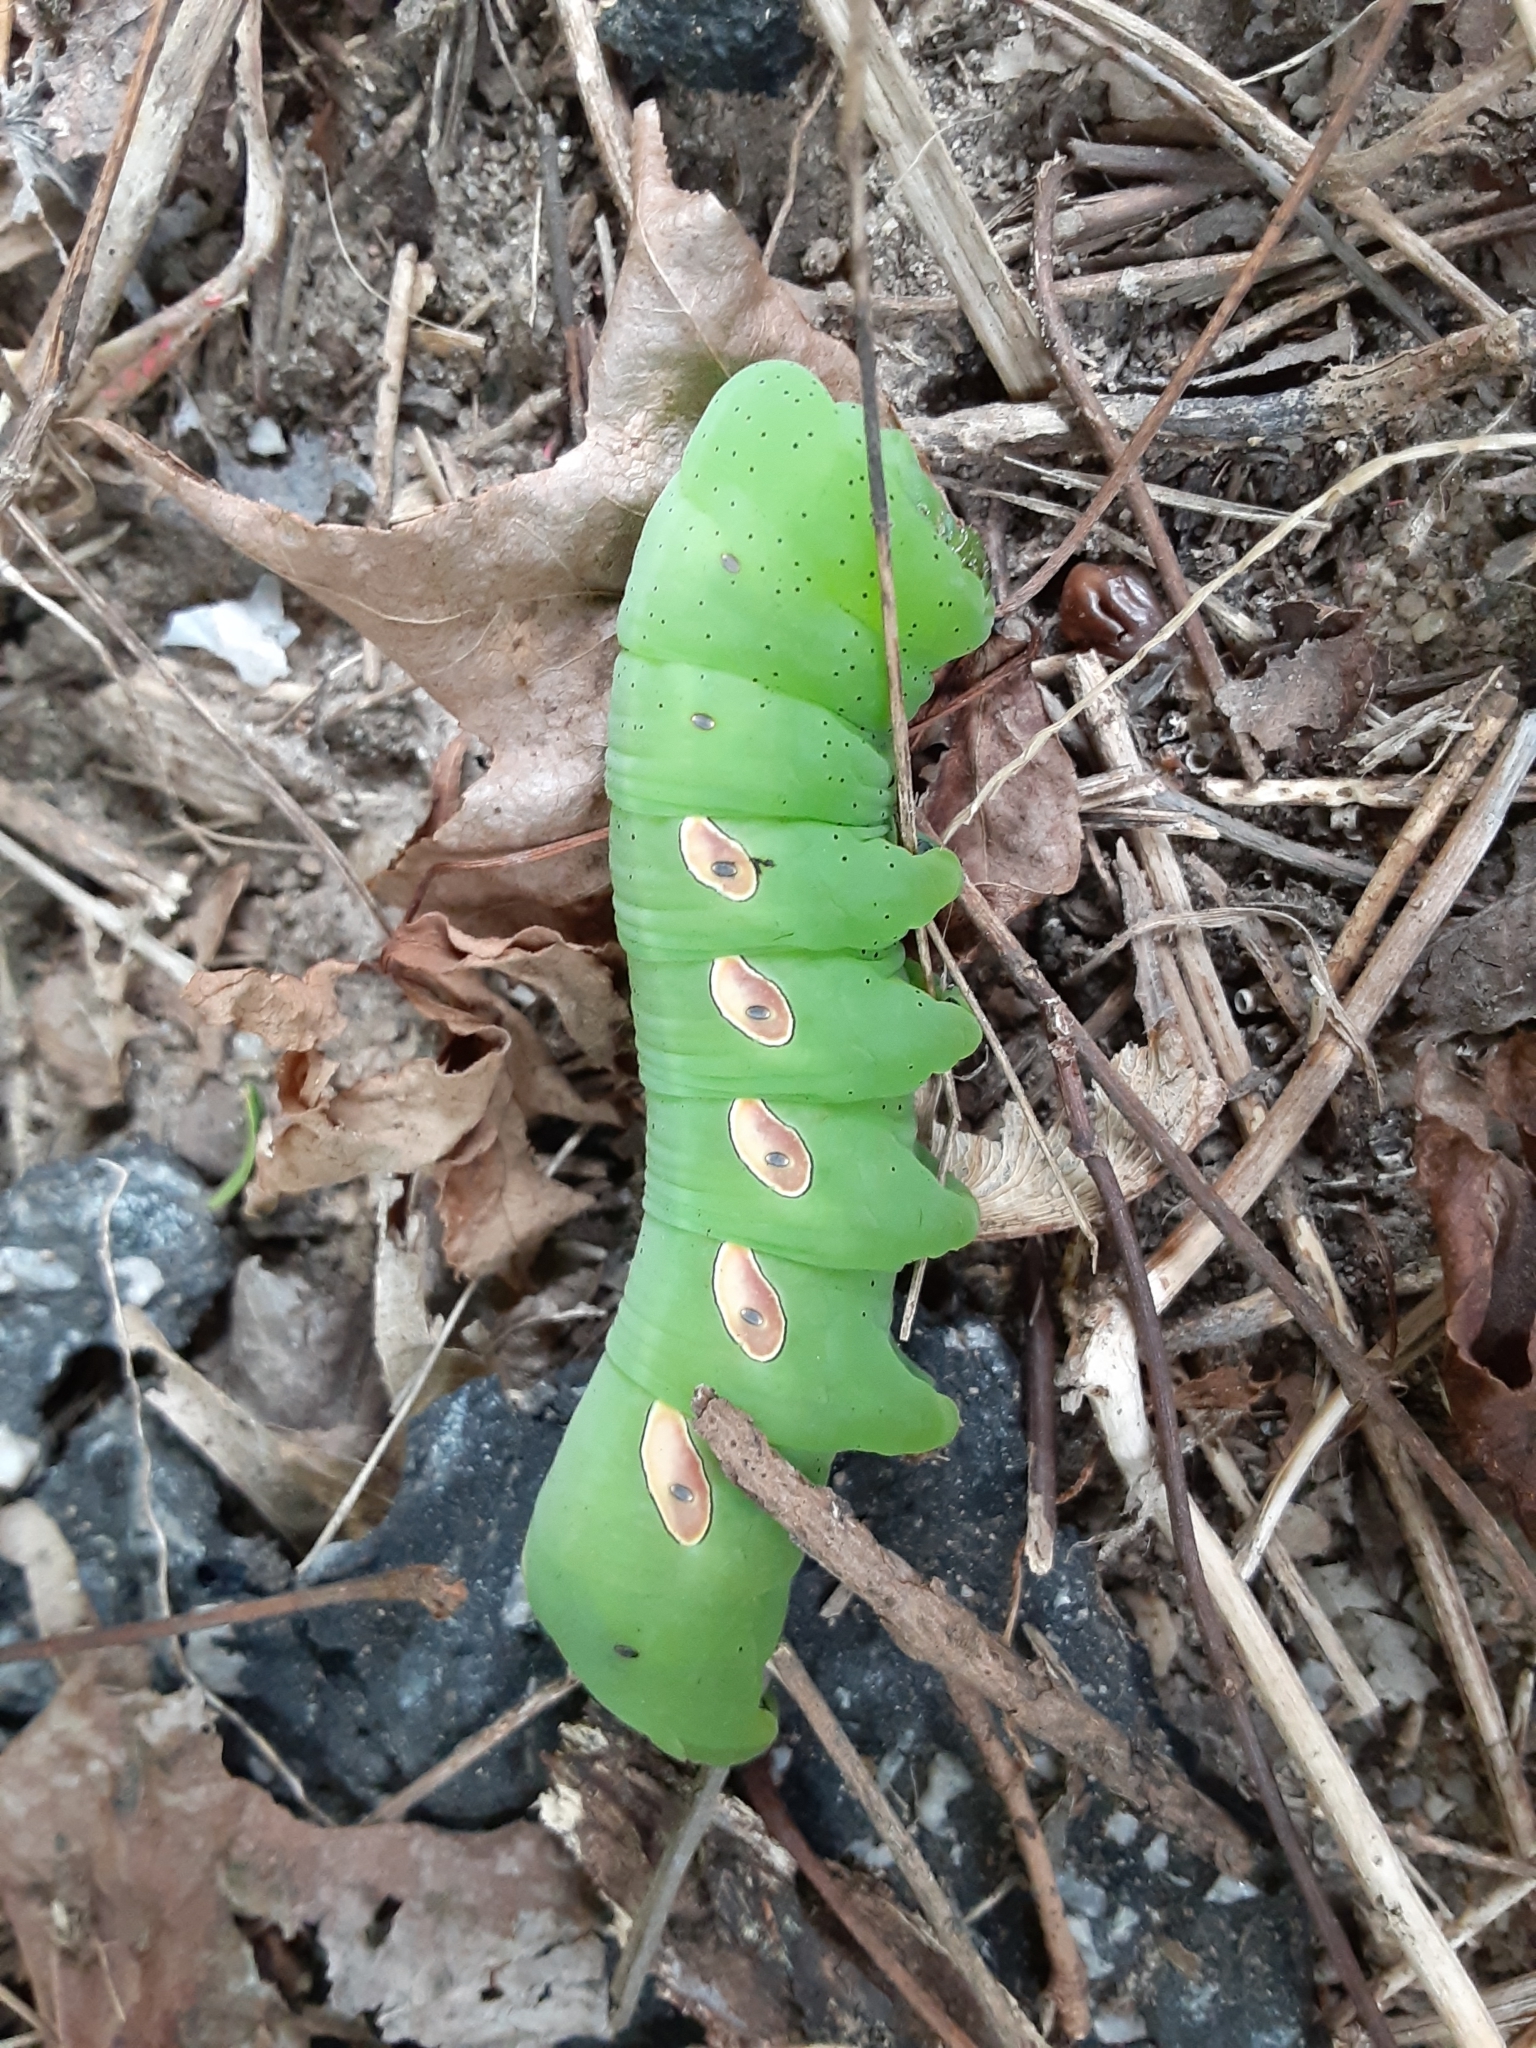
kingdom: Animalia
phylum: Arthropoda
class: Insecta
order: Lepidoptera
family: Sphingidae
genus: Eumorpha
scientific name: Eumorpha pandorus
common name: Pandora sphinx
